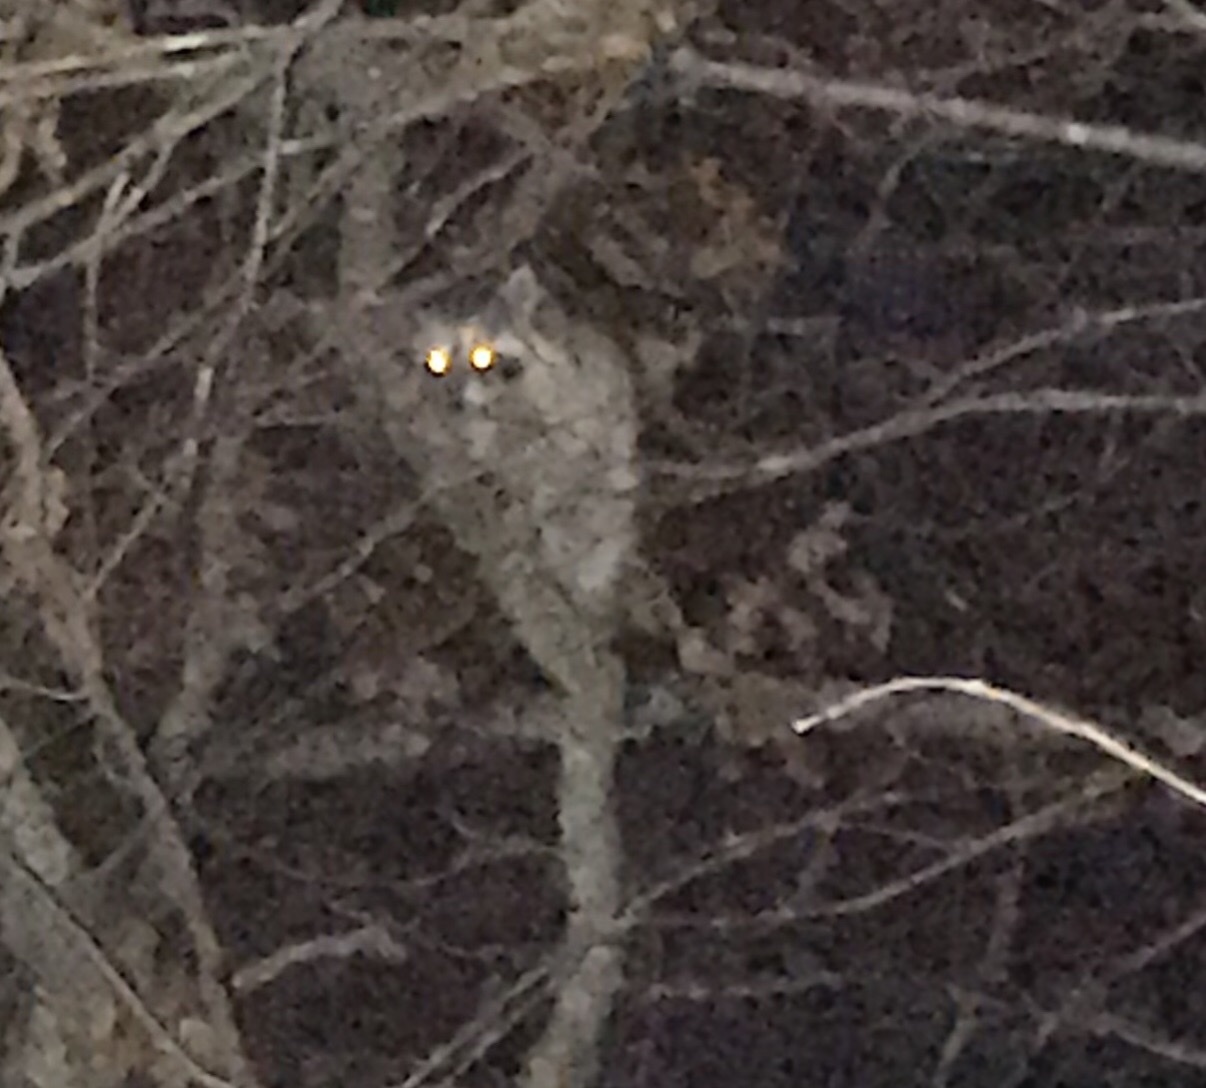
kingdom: Animalia
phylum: Chordata
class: Mammalia
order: Carnivora
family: Procyonidae
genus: Procyon
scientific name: Procyon lotor
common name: Raccoon
